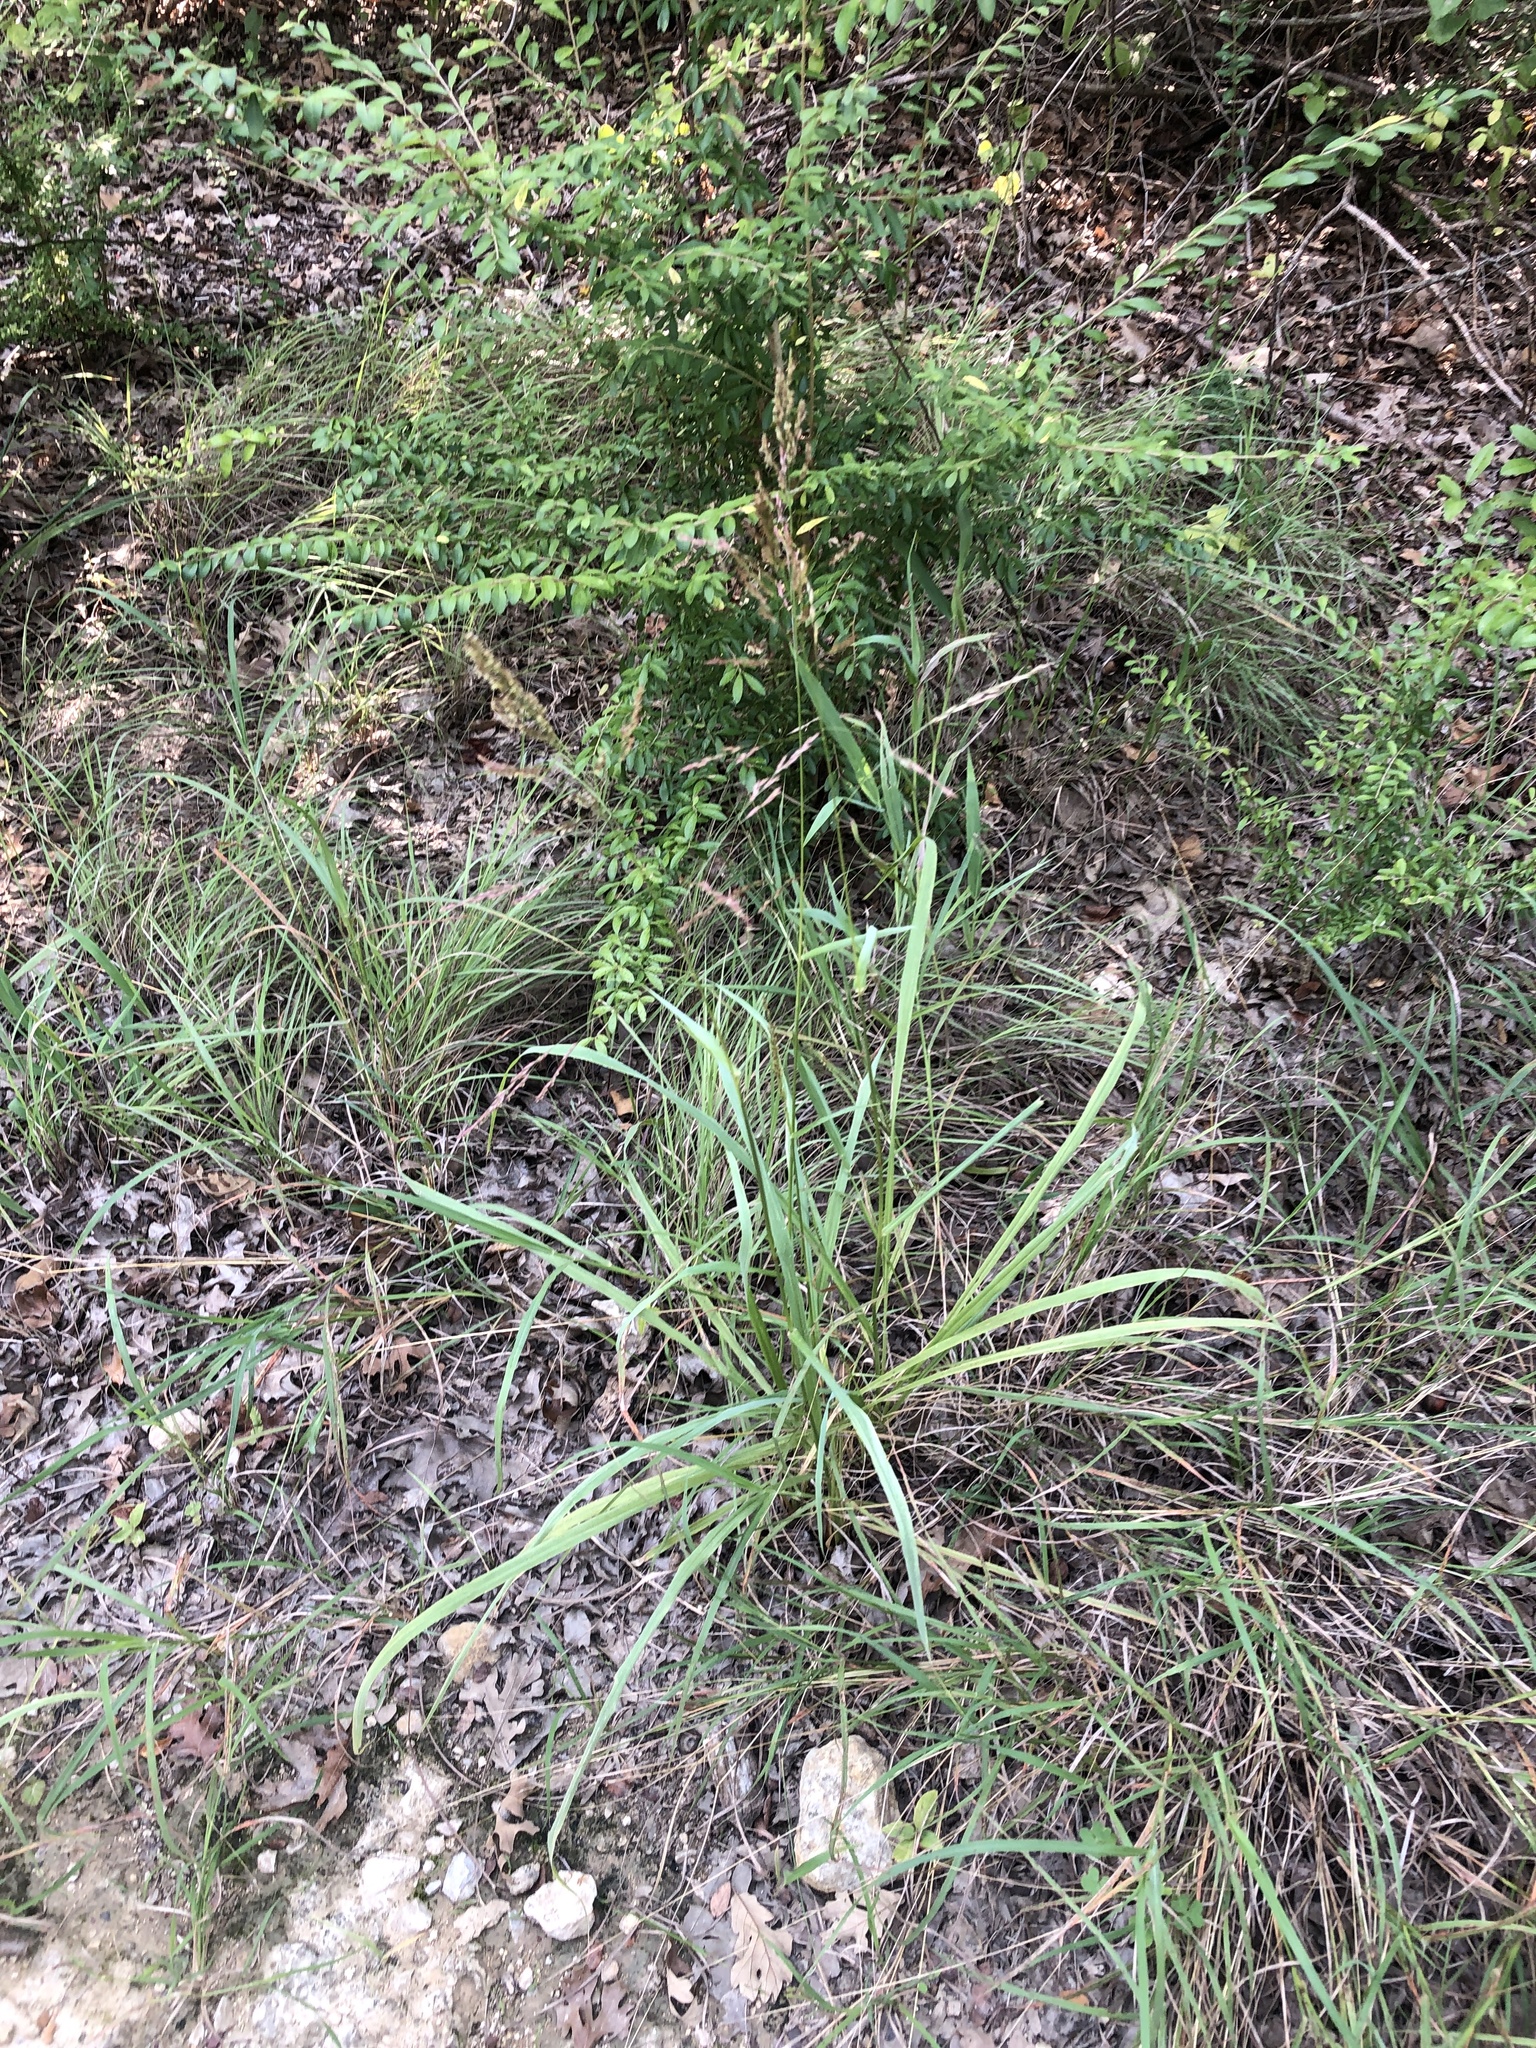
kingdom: Plantae
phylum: Tracheophyta
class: Liliopsida
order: Poales
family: Poaceae
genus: Tridens
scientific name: Tridens flavus
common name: Purpletop
